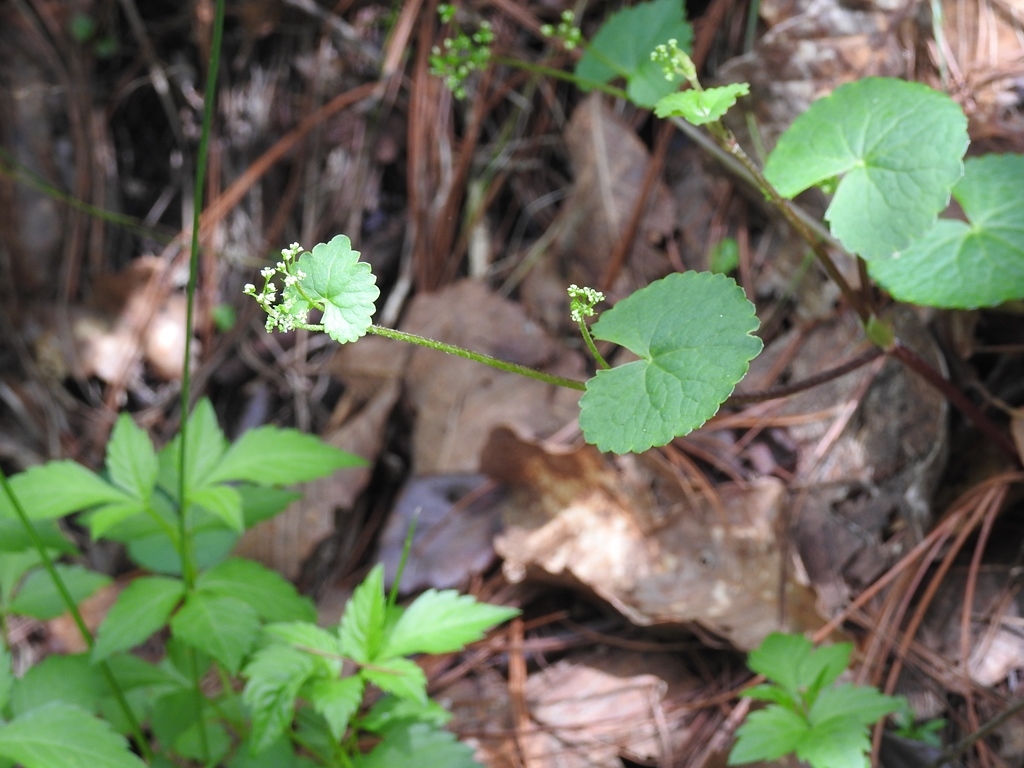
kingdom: Plantae
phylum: Tracheophyta
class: Magnoliopsida
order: Apiales
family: Apiaceae
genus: Micropleura
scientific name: Micropleura renifolia
